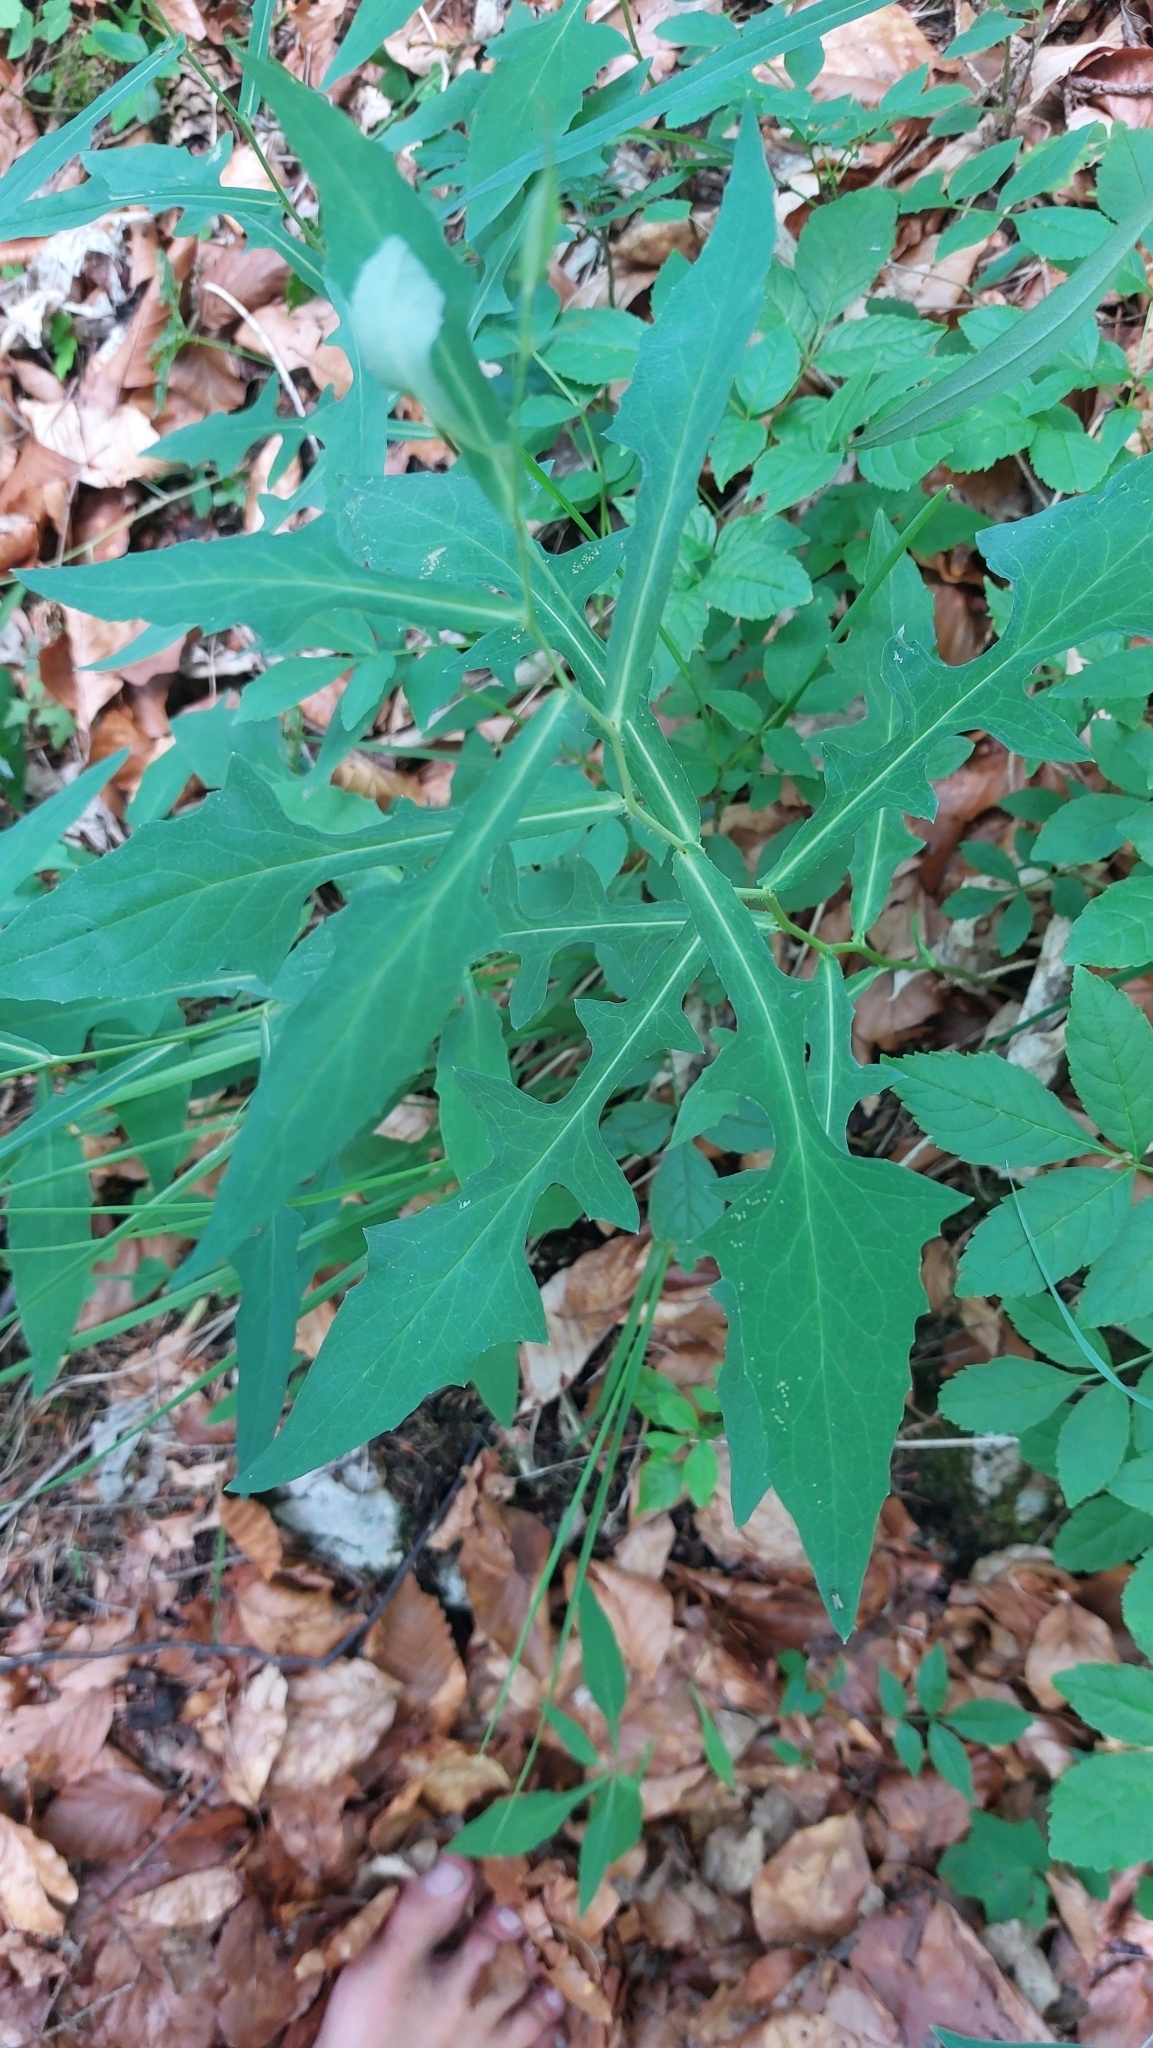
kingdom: Plantae
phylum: Tracheophyta
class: Magnoliopsida
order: Asterales
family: Asteraceae
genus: Prenanthes
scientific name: Prenanthes purpurea
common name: Purple lettuce
